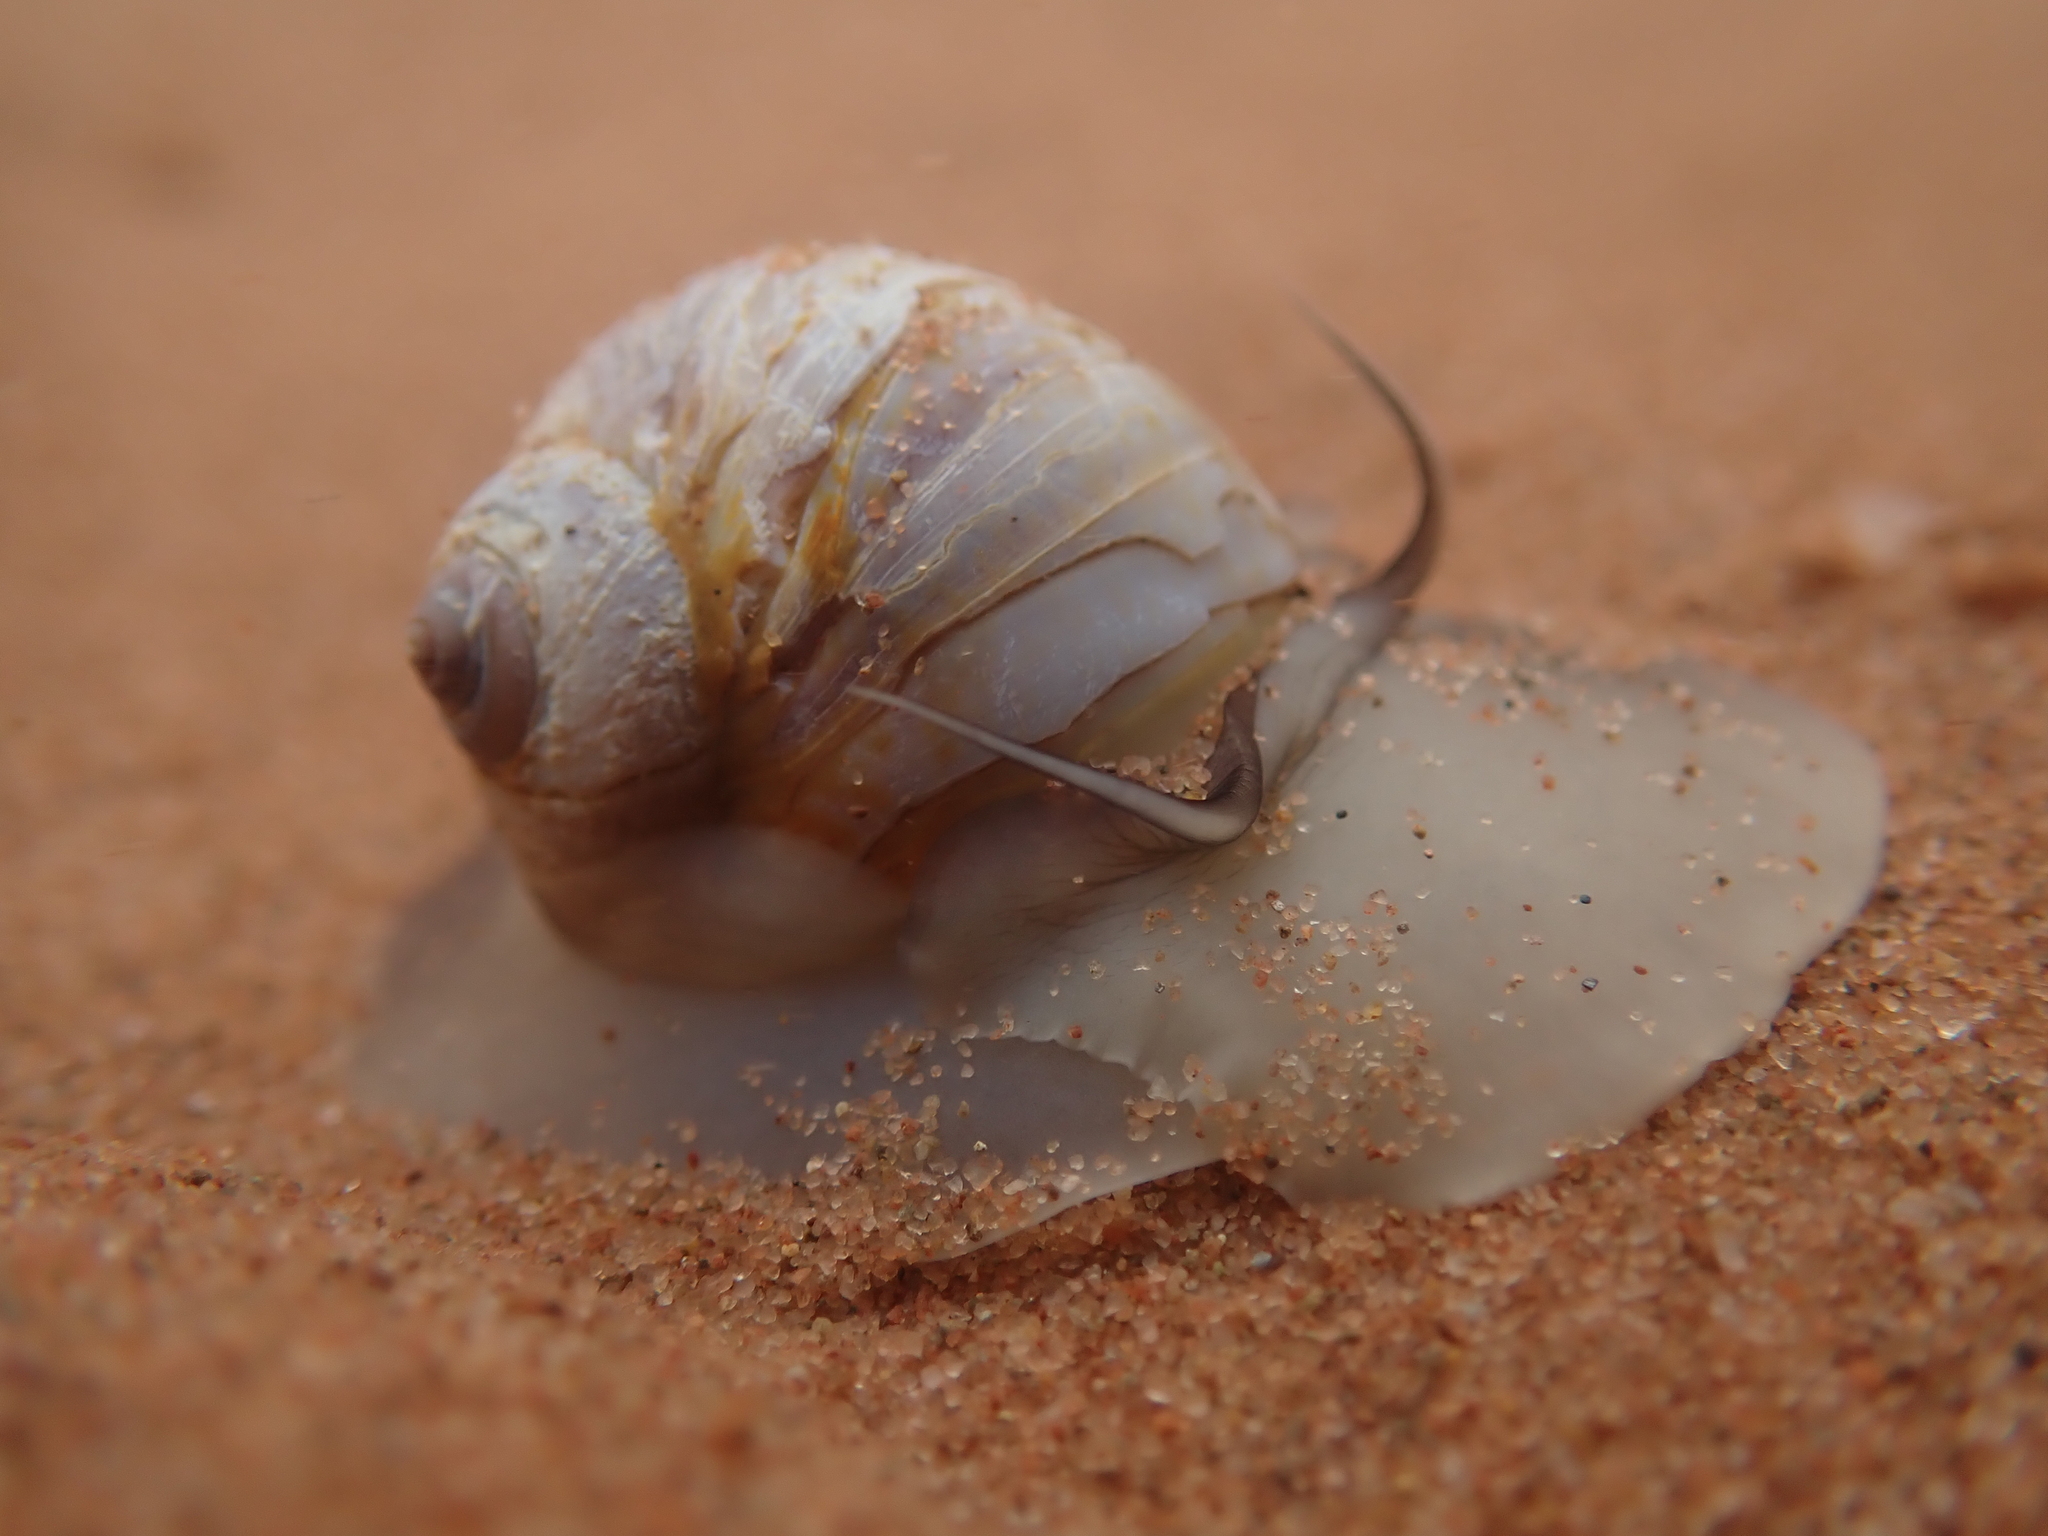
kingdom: Animalia
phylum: Mollusca
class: Gastropoda
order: Littorinimorpha
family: Naticidae
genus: Euspira
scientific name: Euspira heros
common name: Common northern moonsnail
